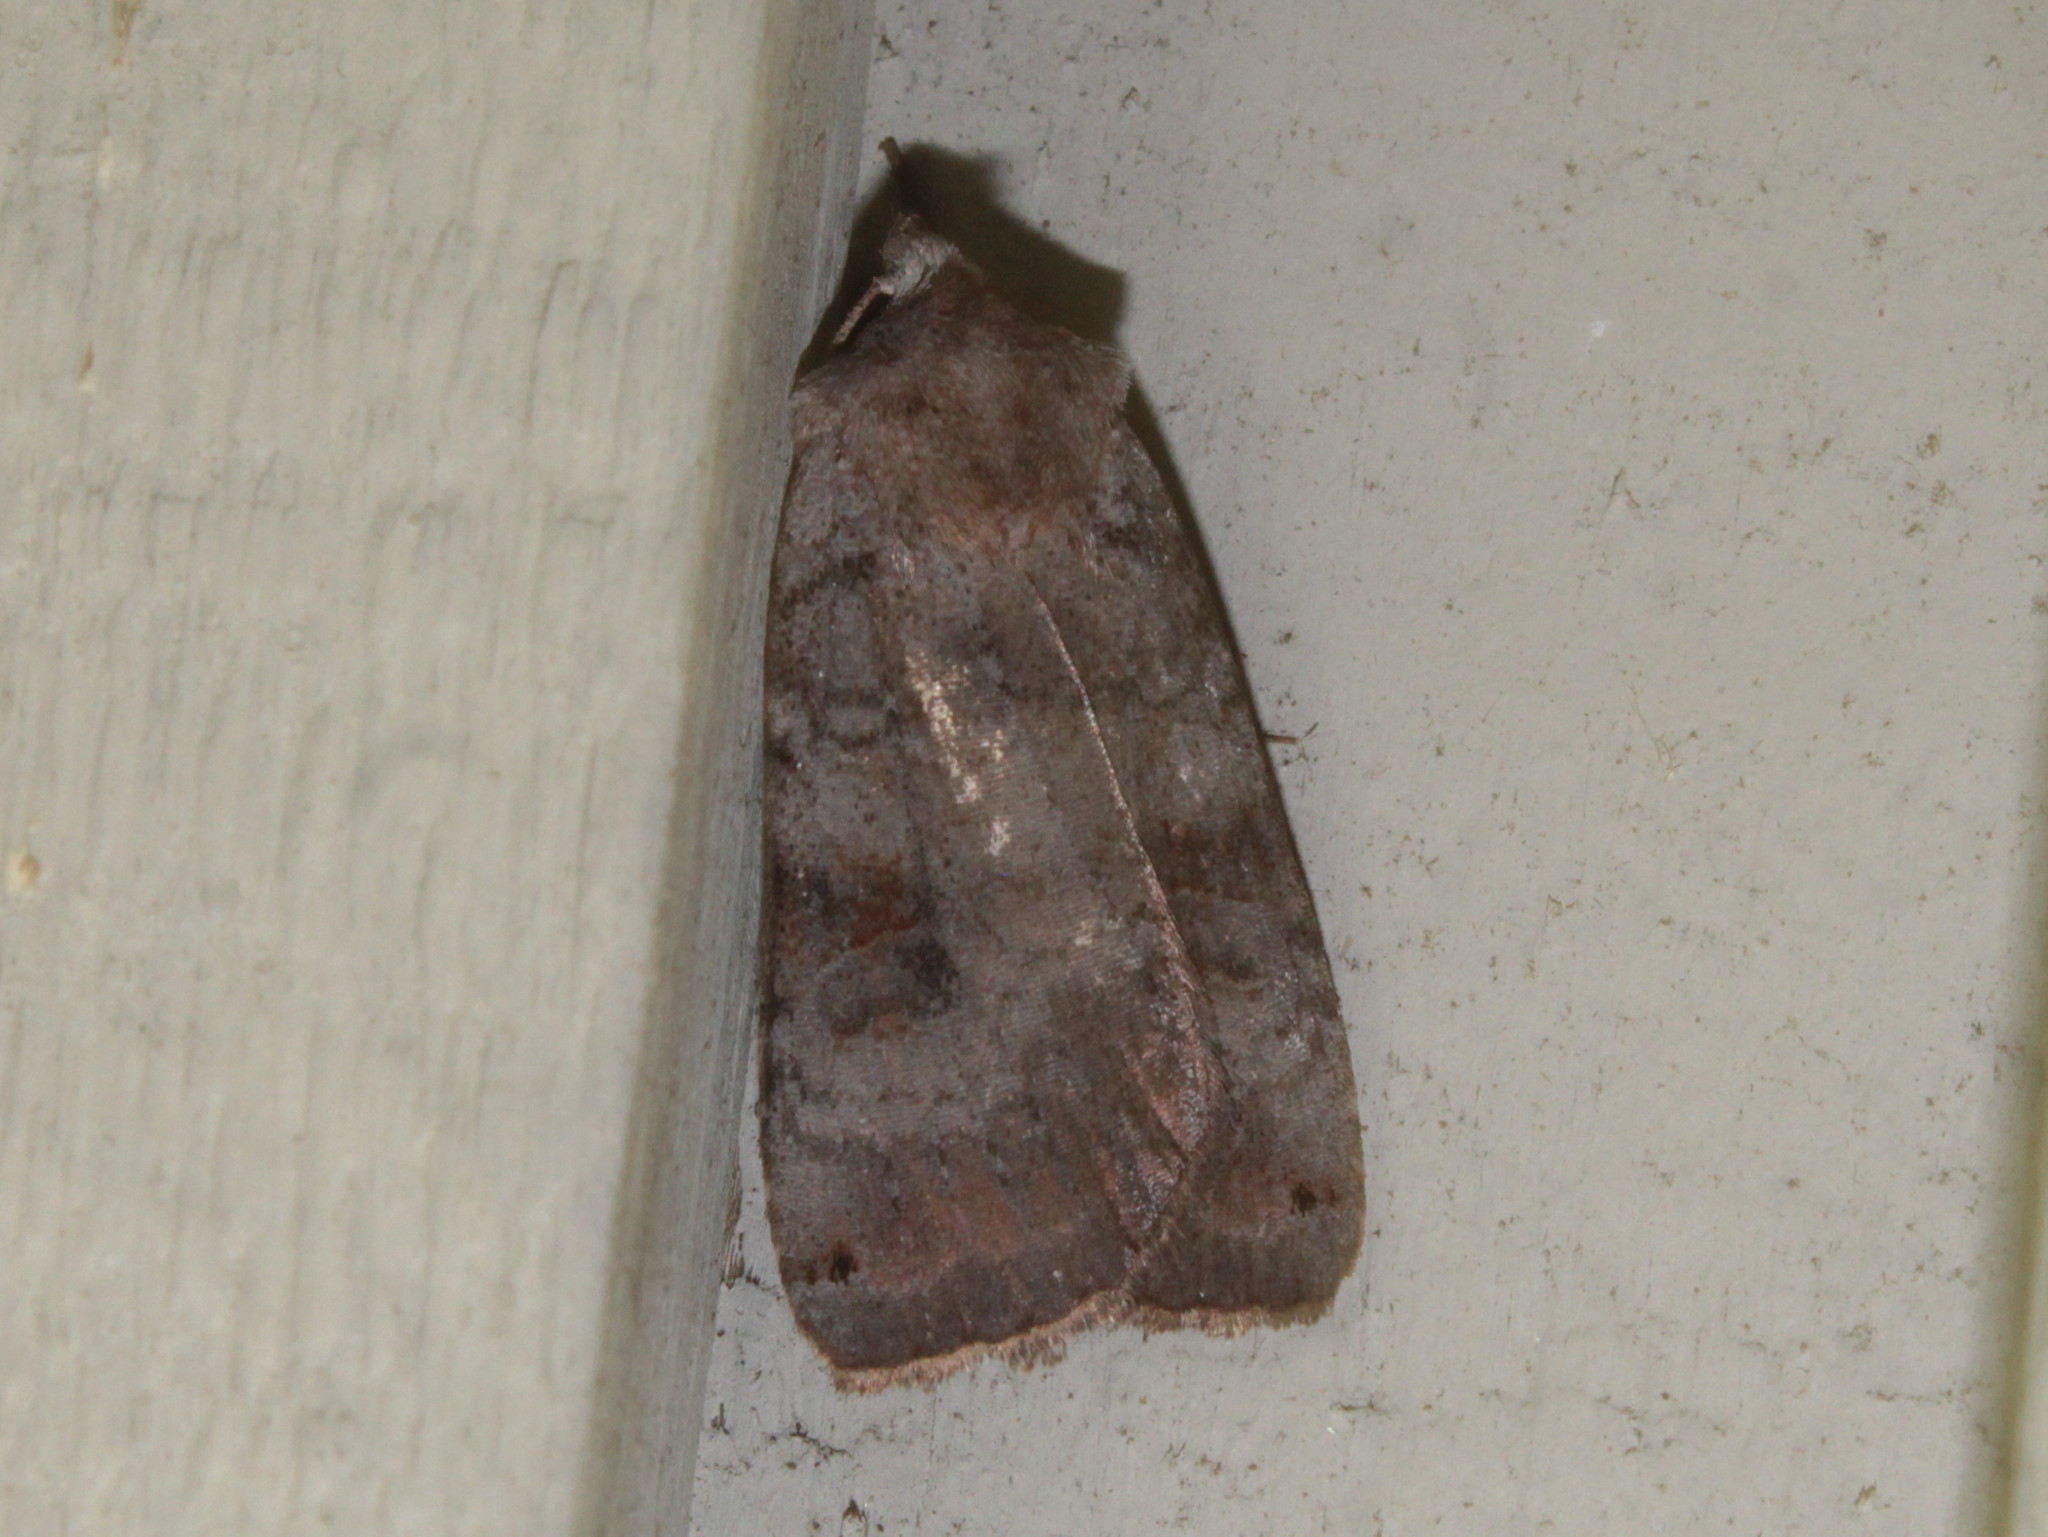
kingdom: Animalia
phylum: Arthropoda
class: Insecta
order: Lepidoptera
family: Noctuidae
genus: Xestia
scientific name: Xestia smithii
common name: Smith's dart
